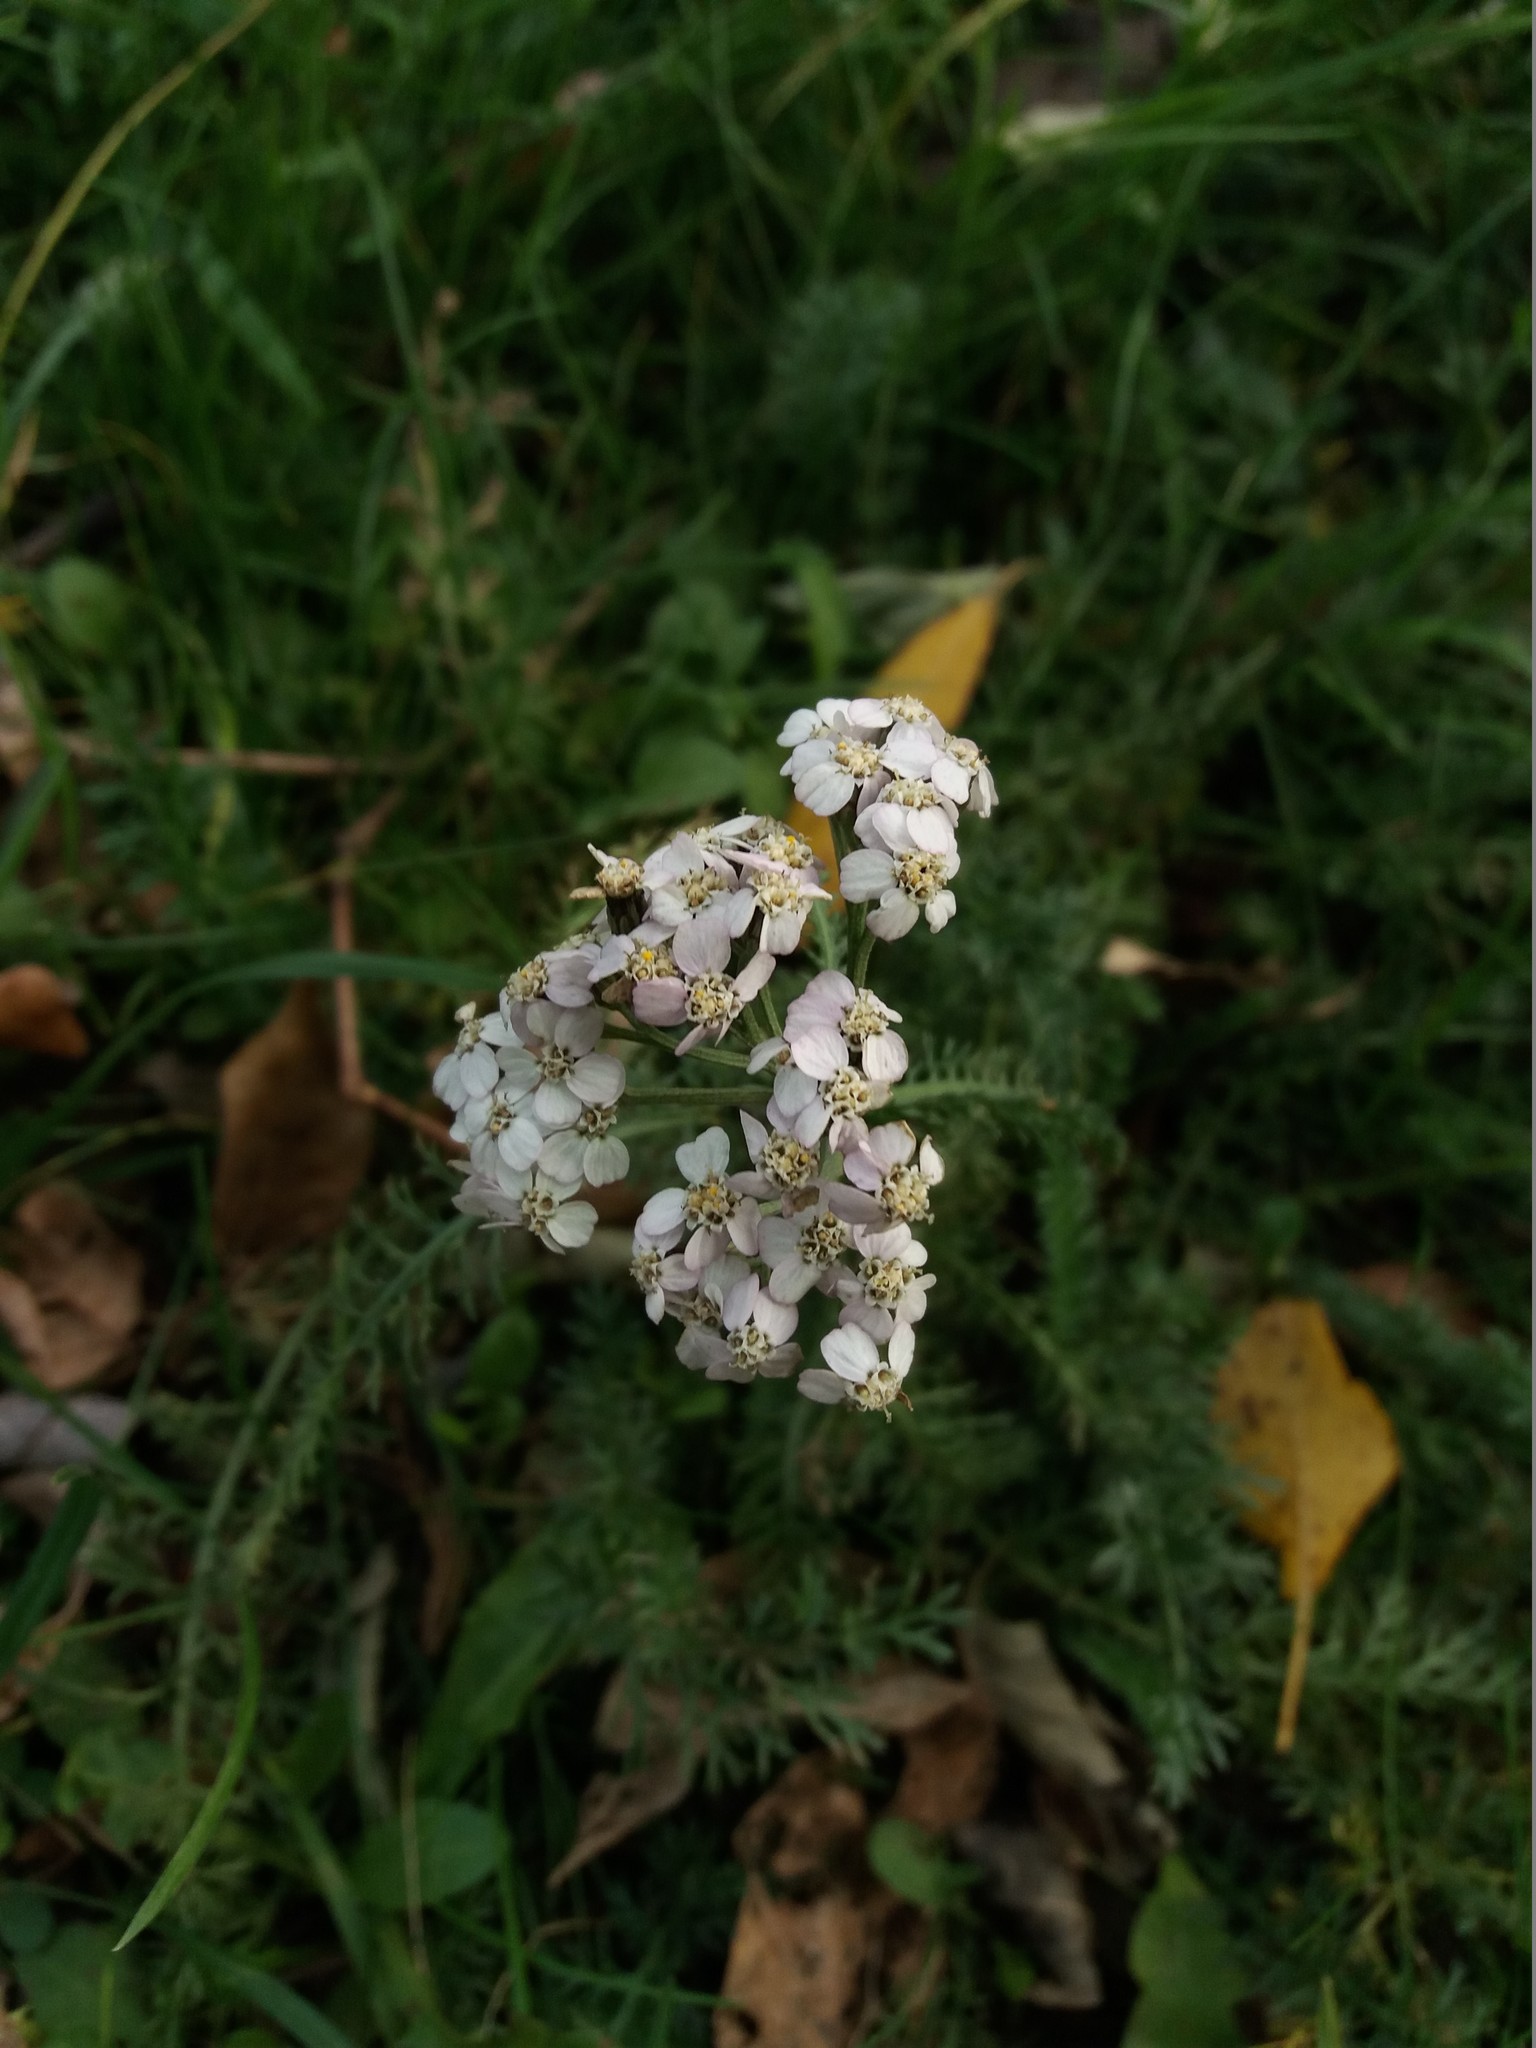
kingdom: Plantae
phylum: Tracheophyta
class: Magnoliopsida
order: Asterales
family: Asteraceae
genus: Achillea
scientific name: Achillea millefolium
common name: Yarrow
